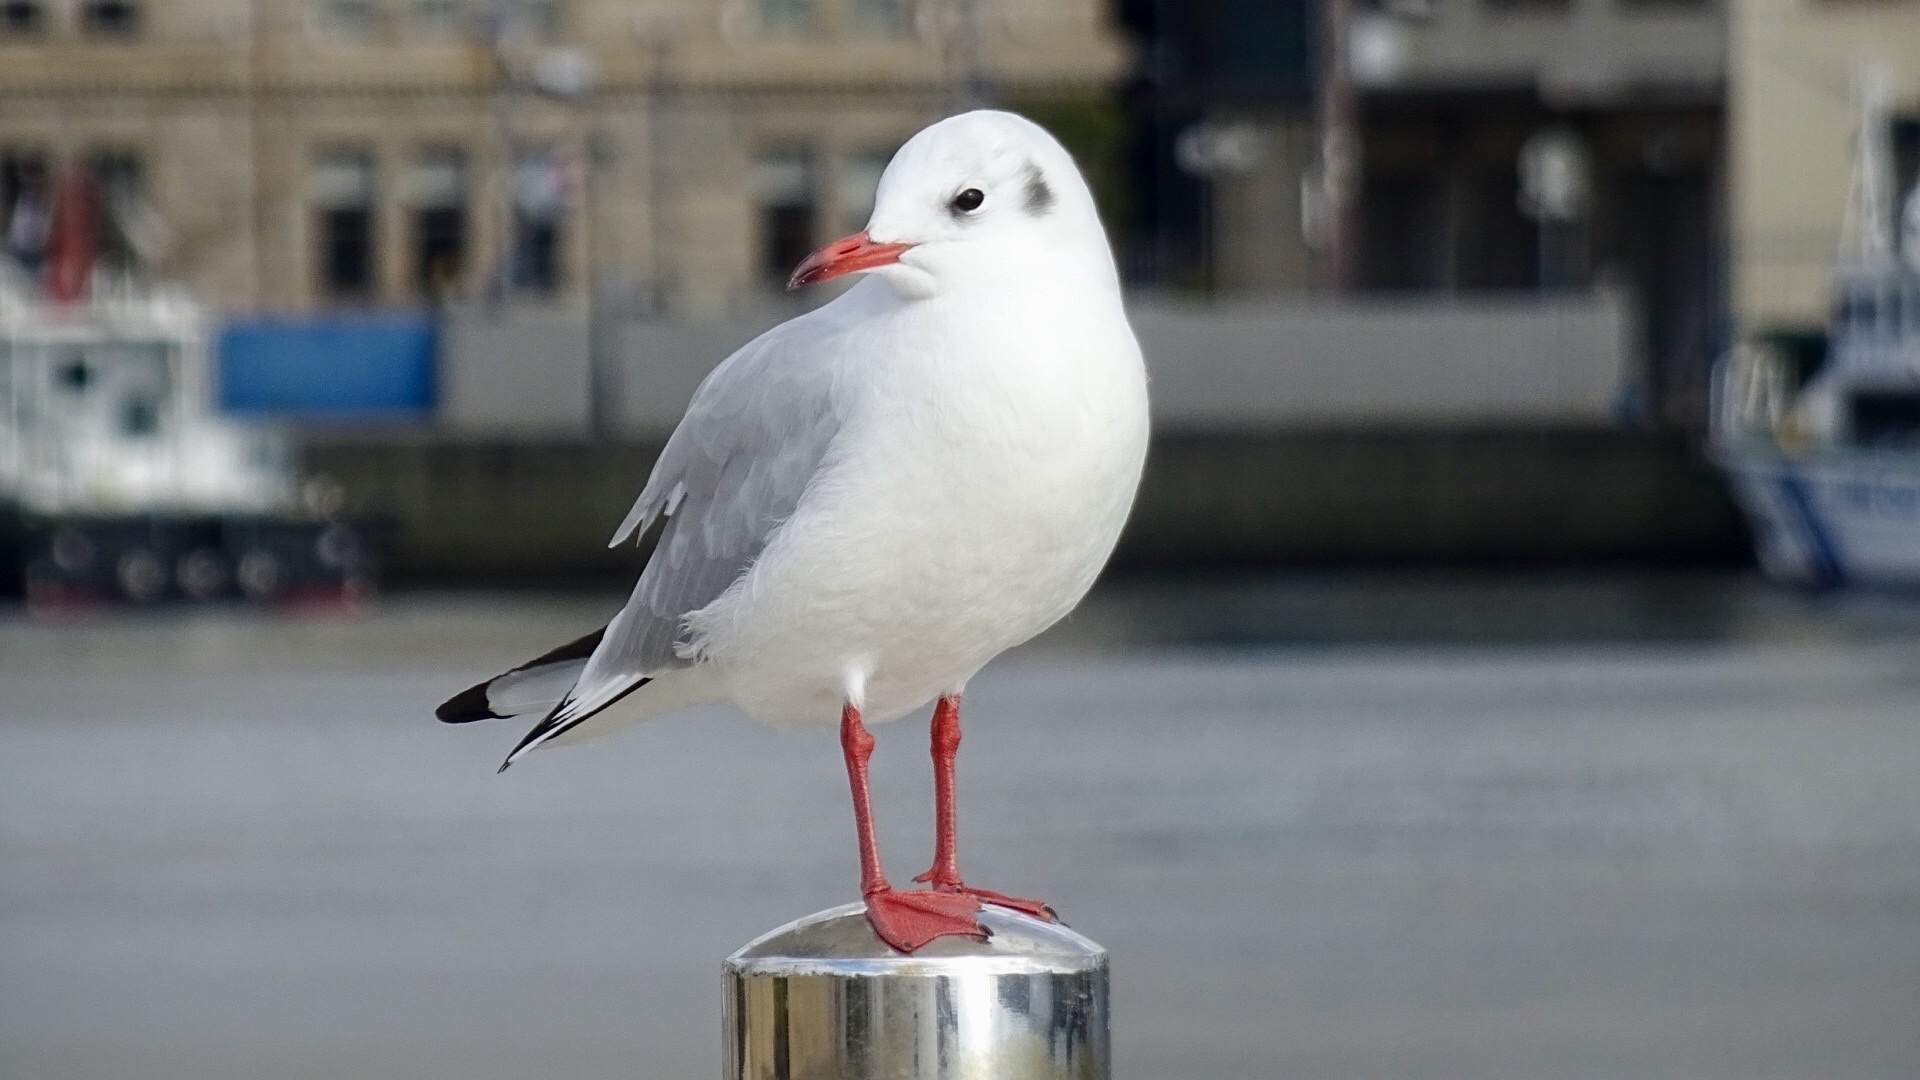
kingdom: Animalia
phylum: Chordata
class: Aves
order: Charadriiformes
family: Laridae
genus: Chroicocephalus
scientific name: Chroicocephalus ridibundus
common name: Black-headed gull
